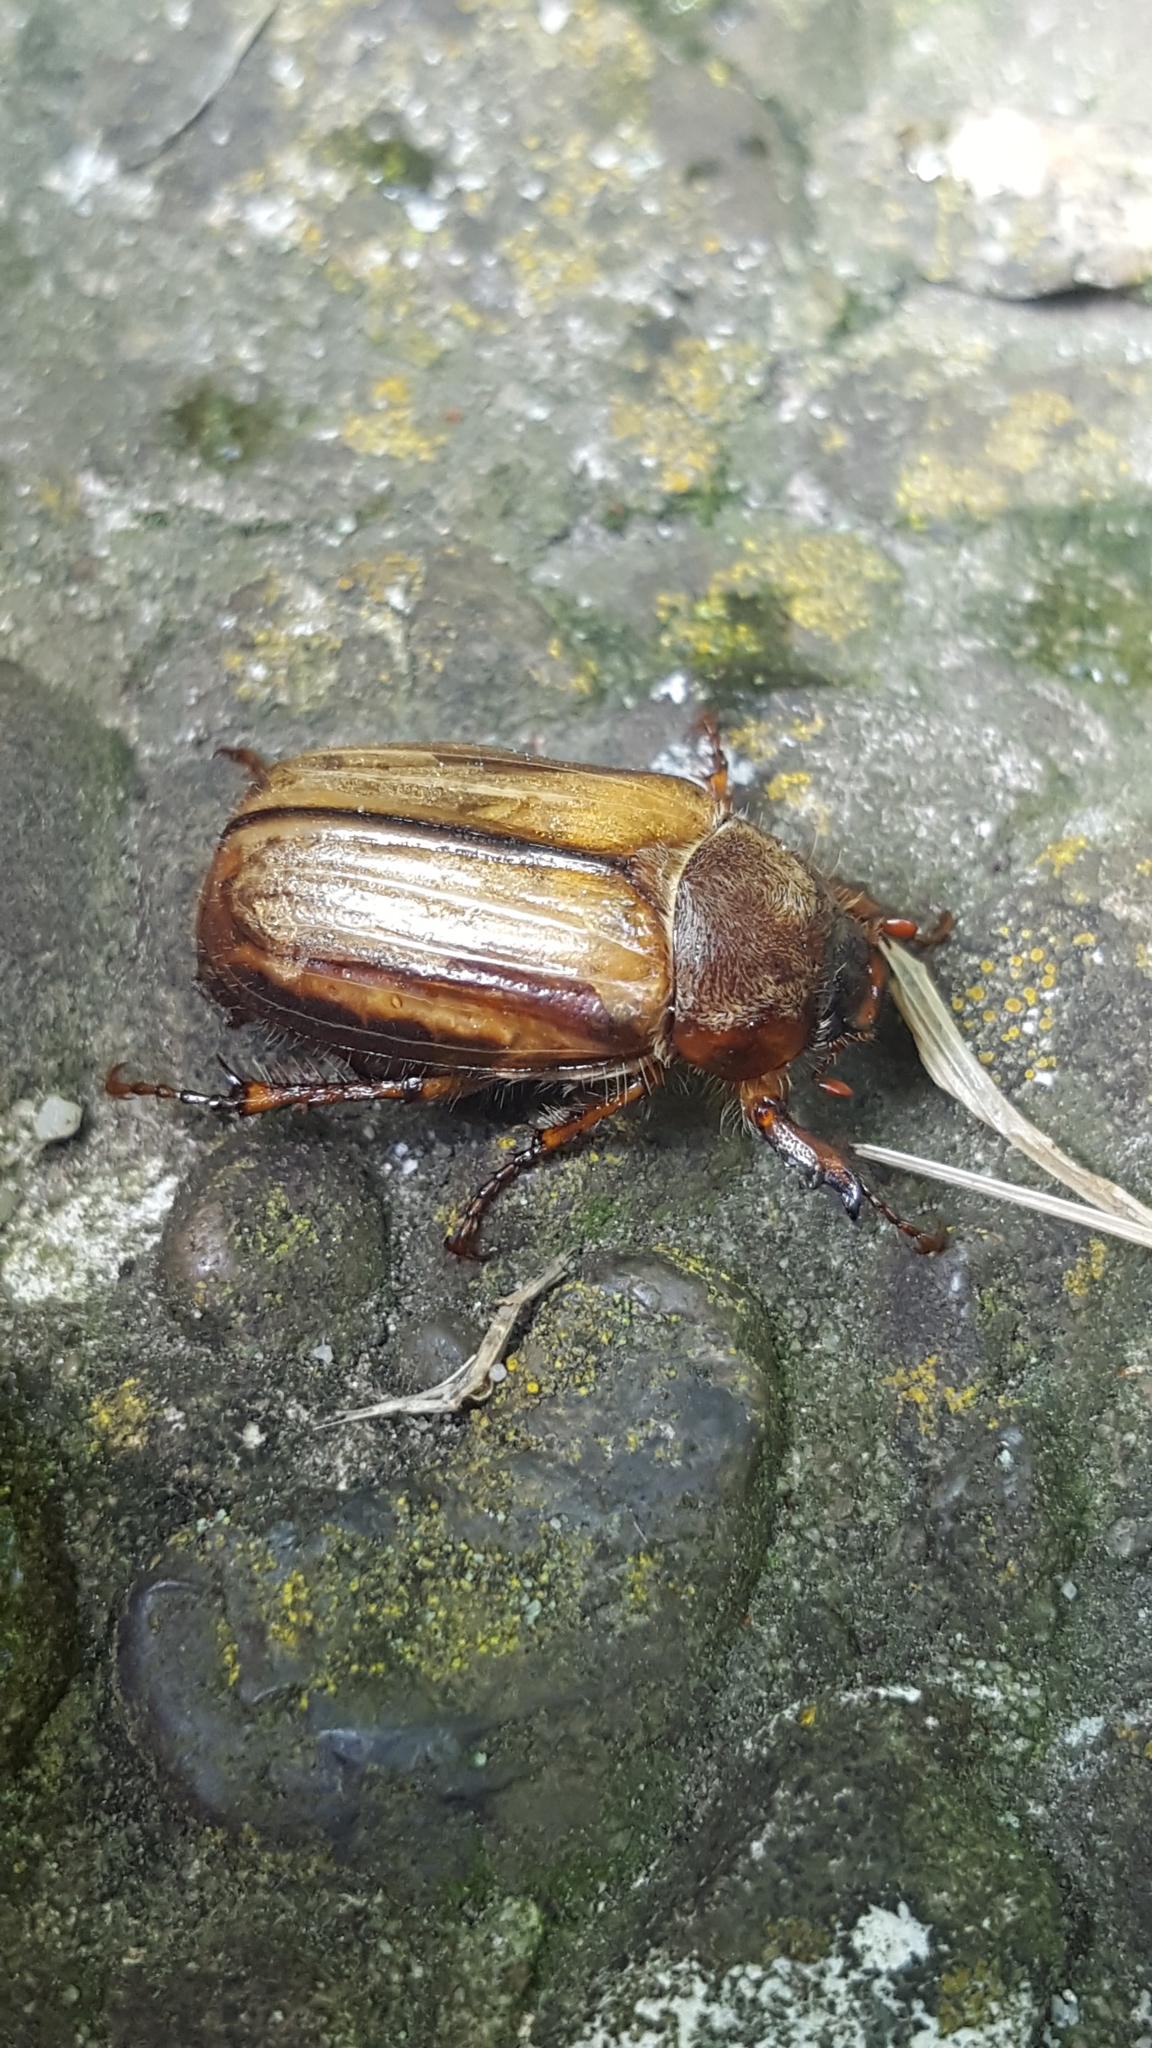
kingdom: Animalia
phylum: Arthropoda
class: Insecta
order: Coleoptera
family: Scarabaeidae
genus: Amphimallon
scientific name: Amphimallon solstitiale
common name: Summer chafer
